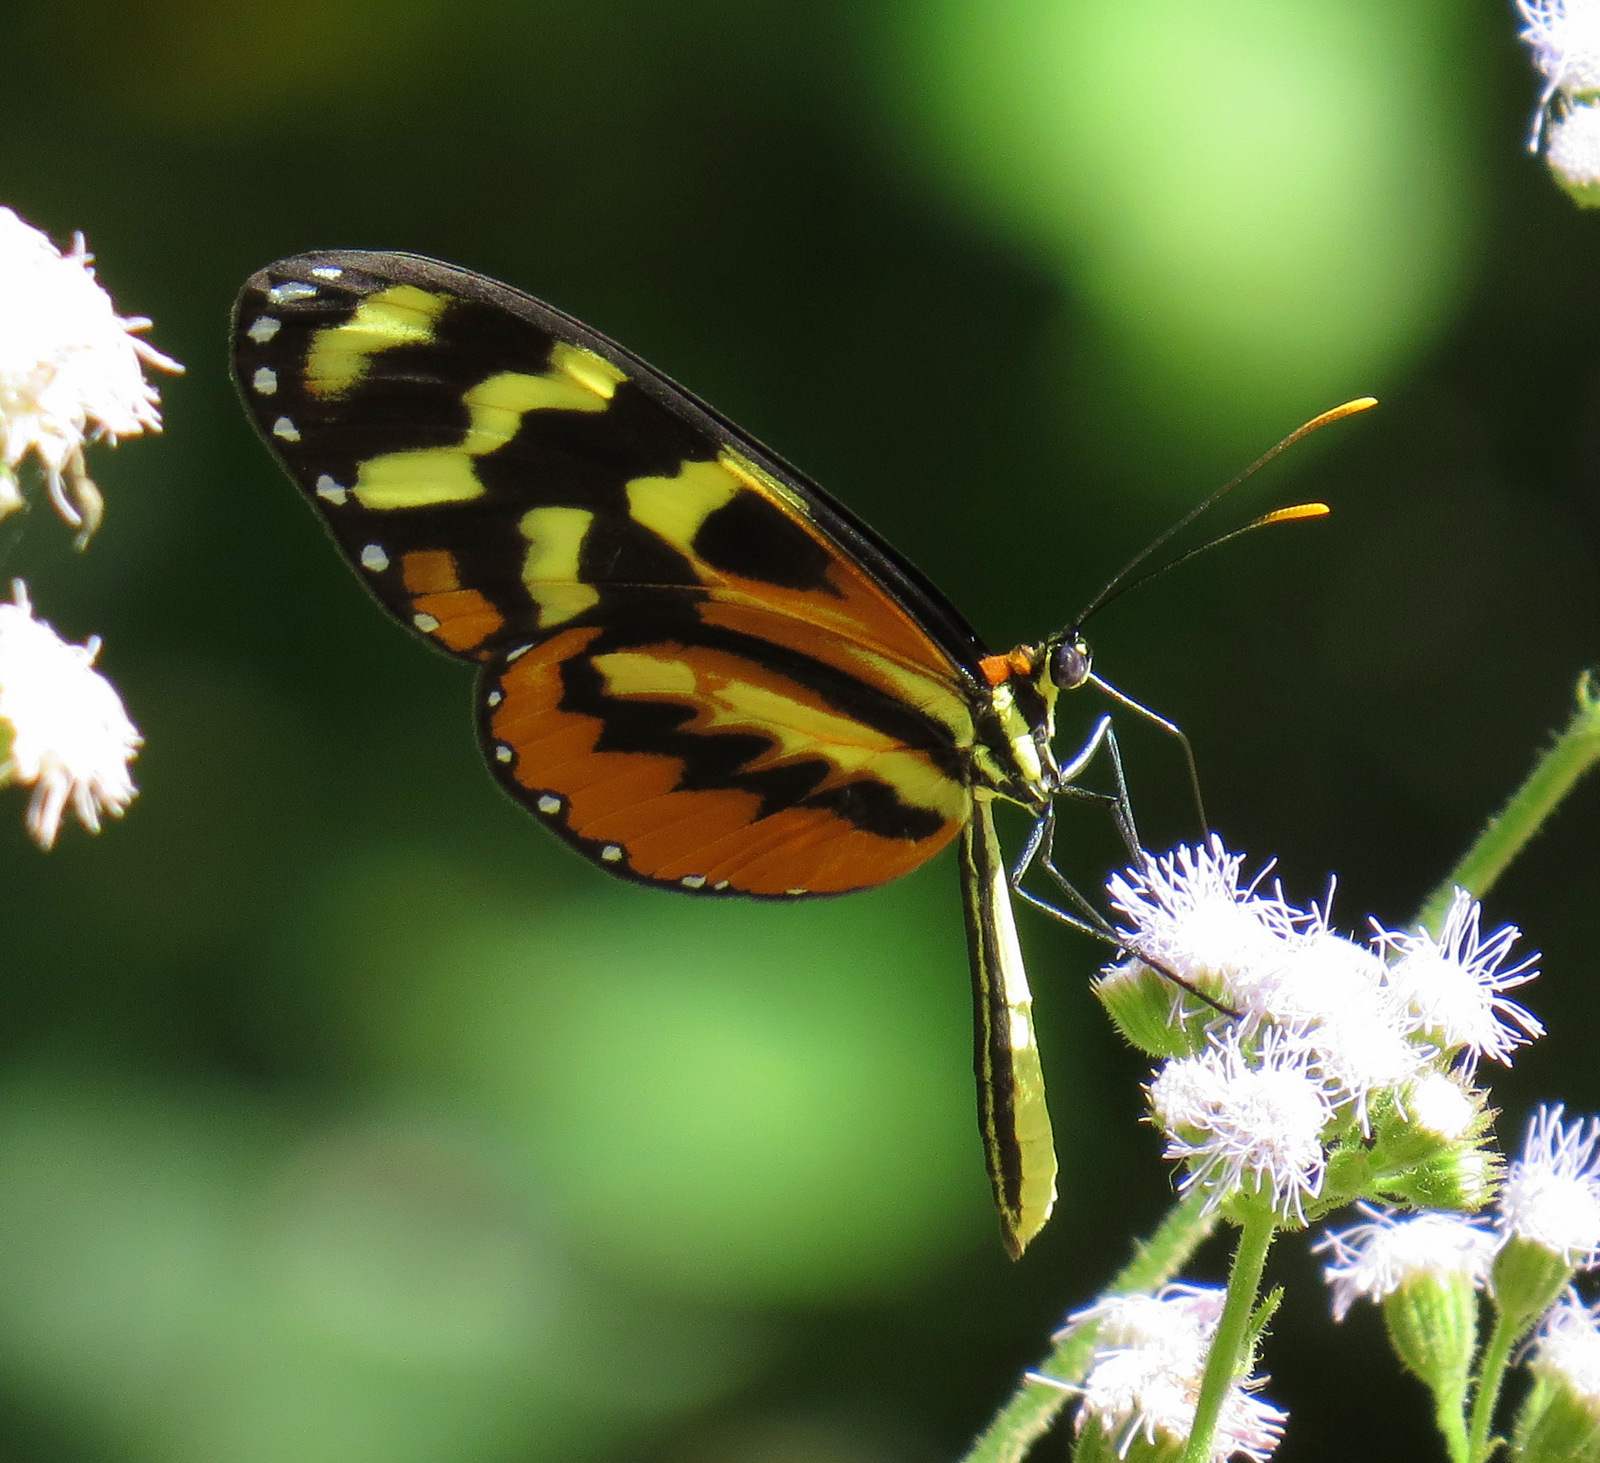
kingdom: Animalia
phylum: Arthropoda
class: Insecta
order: Lepidoptera
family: Nymphalidae
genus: Mechanitis
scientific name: Mechanitis polymnia
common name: Disturbed tigerwing
